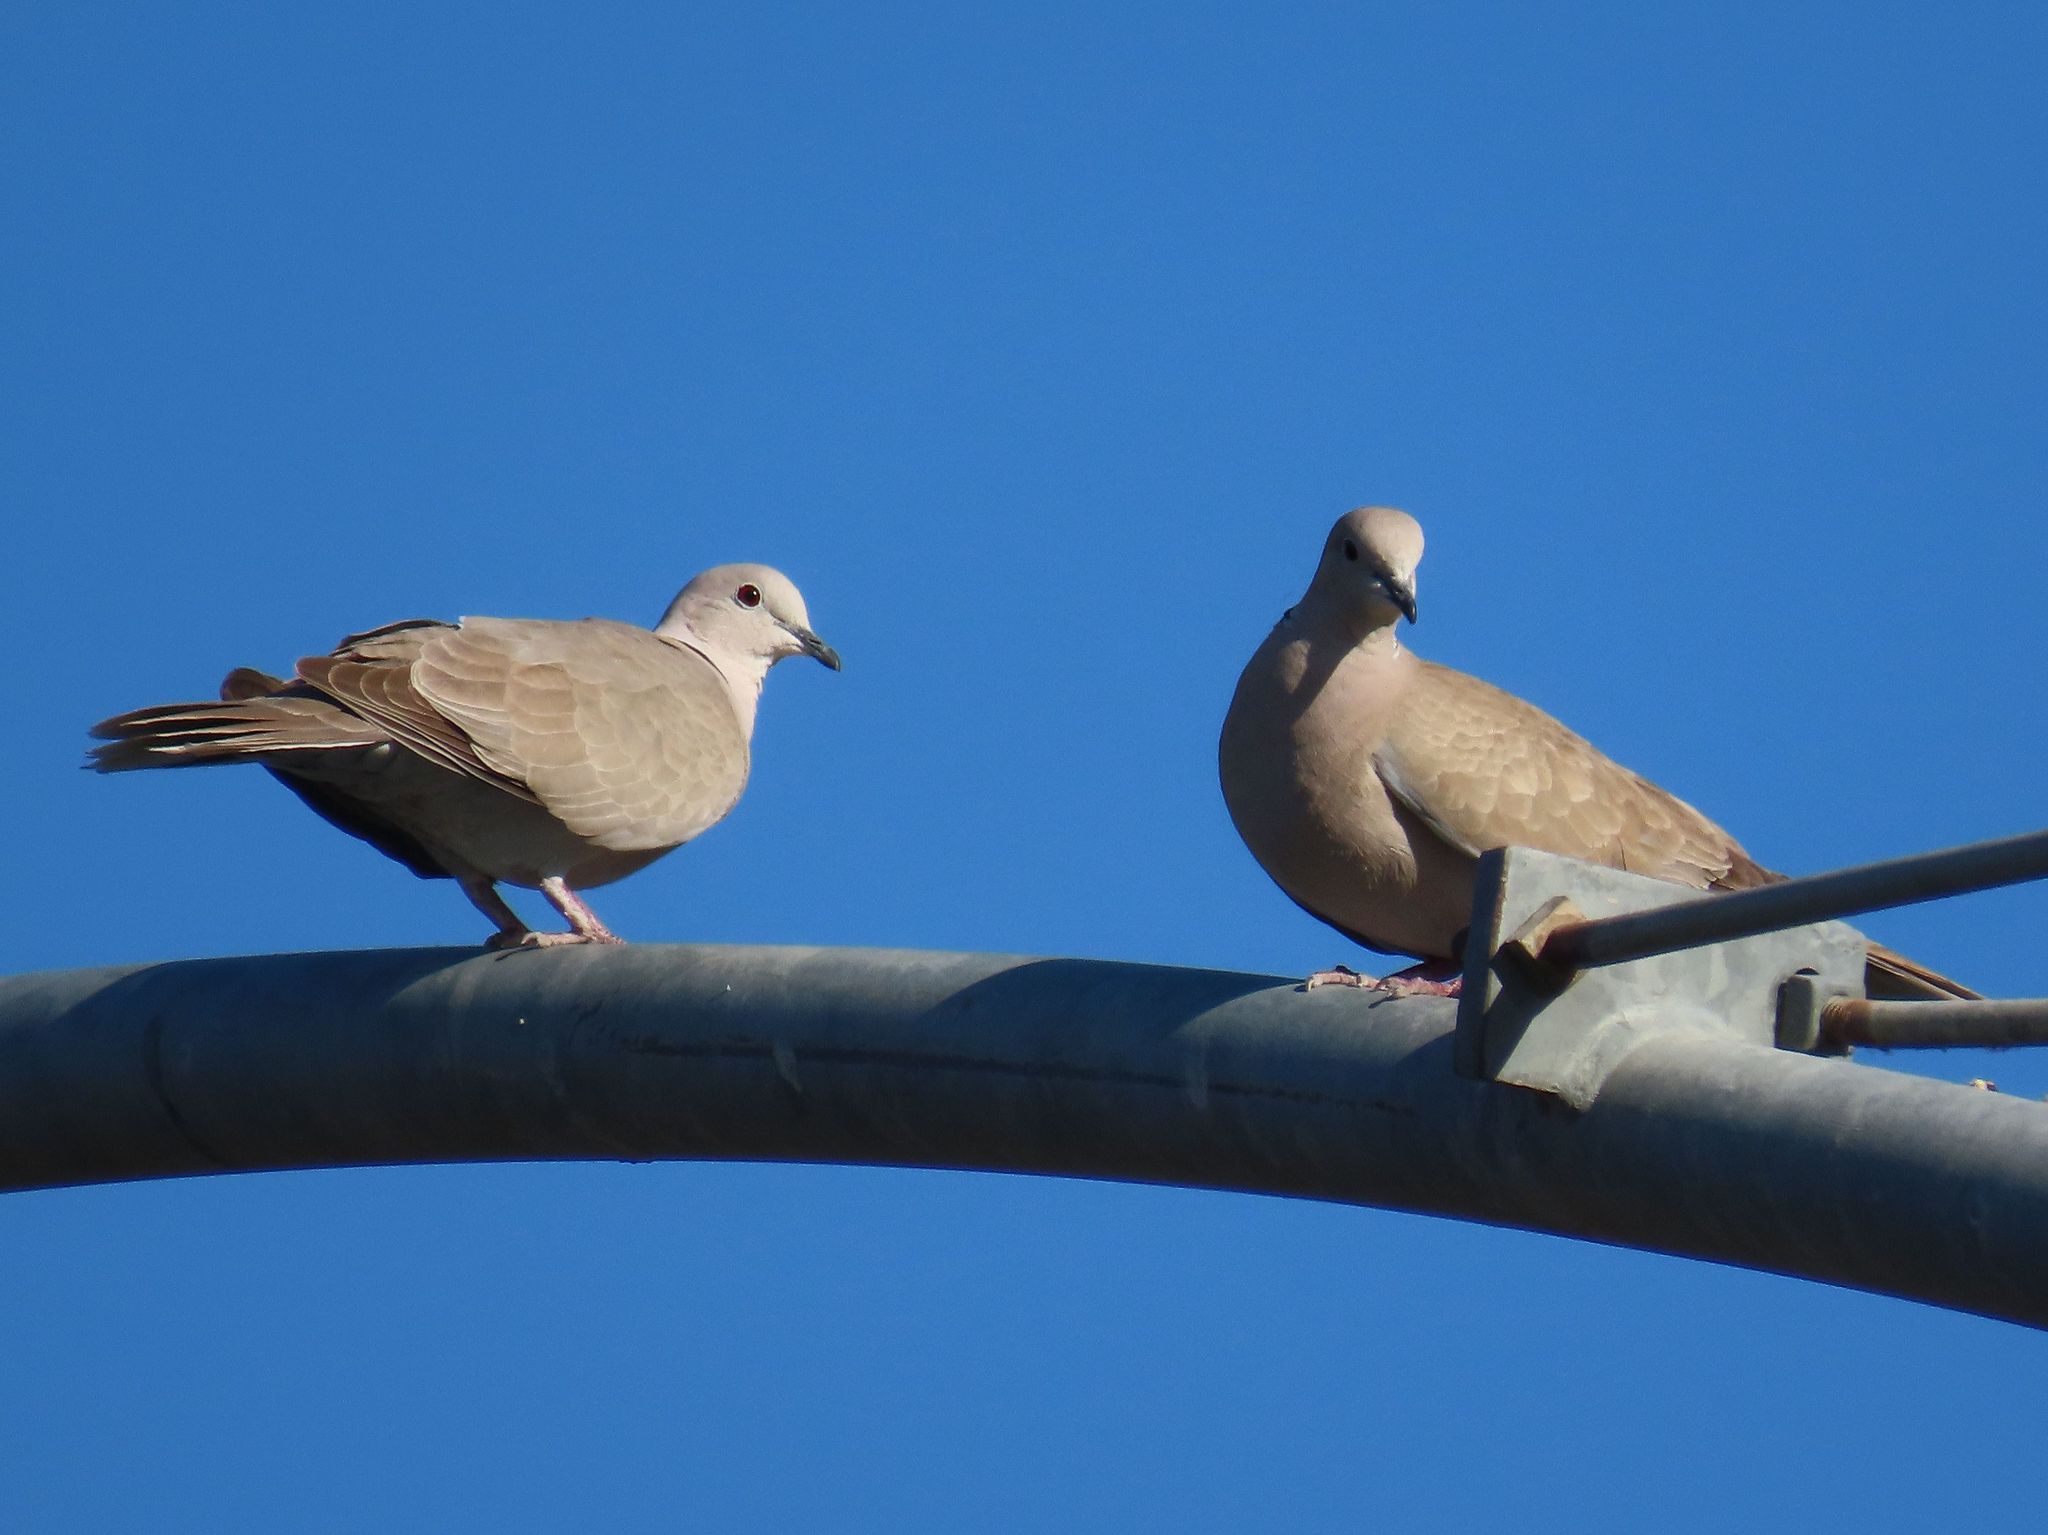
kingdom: Animalia
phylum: Chordata
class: Aves
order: Columbiformes
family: Columbidae
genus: Streptopelia
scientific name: Streptopelia decaocto
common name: Eurasian collared dove
